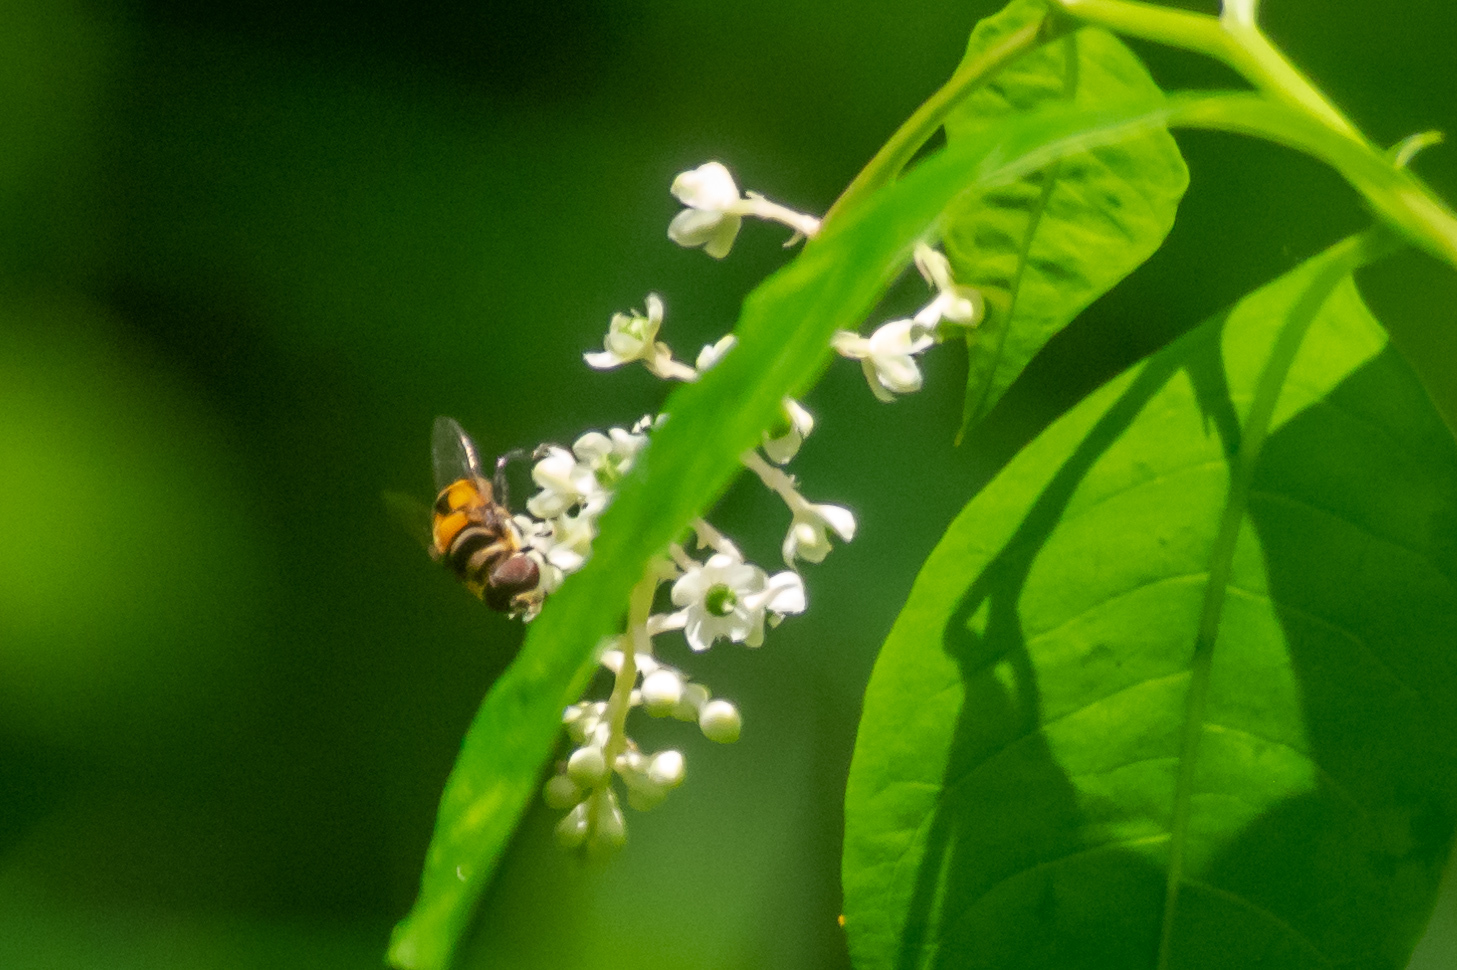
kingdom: Animalia
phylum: Arthropoda
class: Insecta
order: Diptera
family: Syrphidae
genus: Palpada
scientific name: Palpada vinetorum
